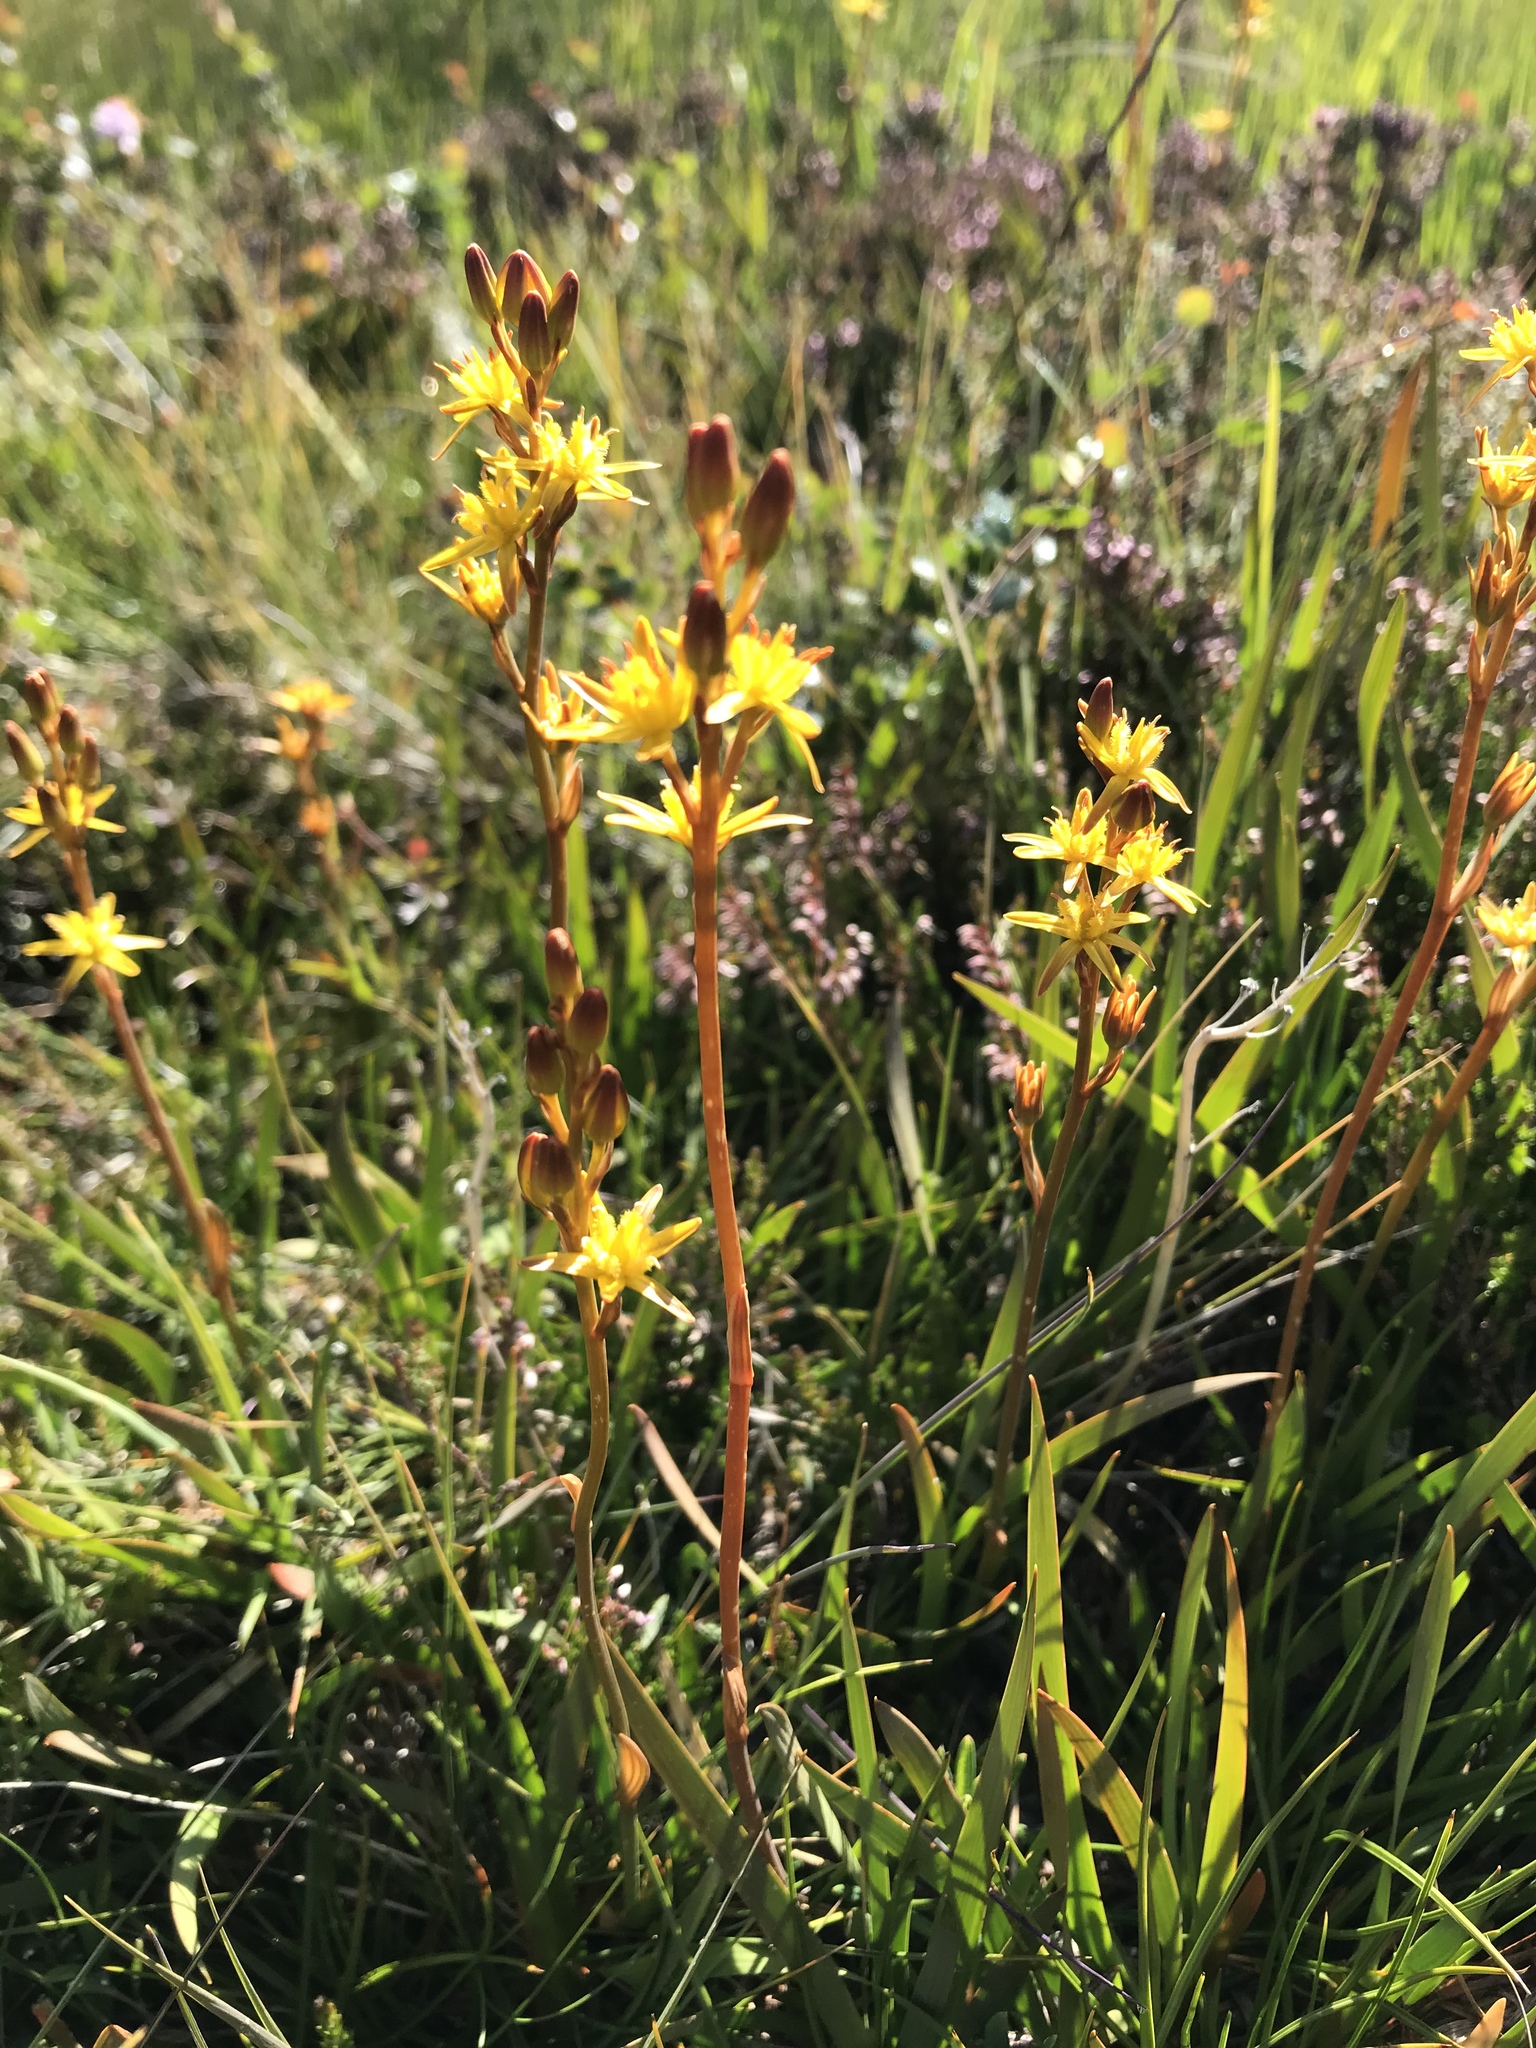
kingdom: Plantae
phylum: Tracheophyta
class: Liliopsida
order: Dioscoreales
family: Nartheciaceae
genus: Narthecium
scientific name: Narthecium ossifragum
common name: Bog asphodel
